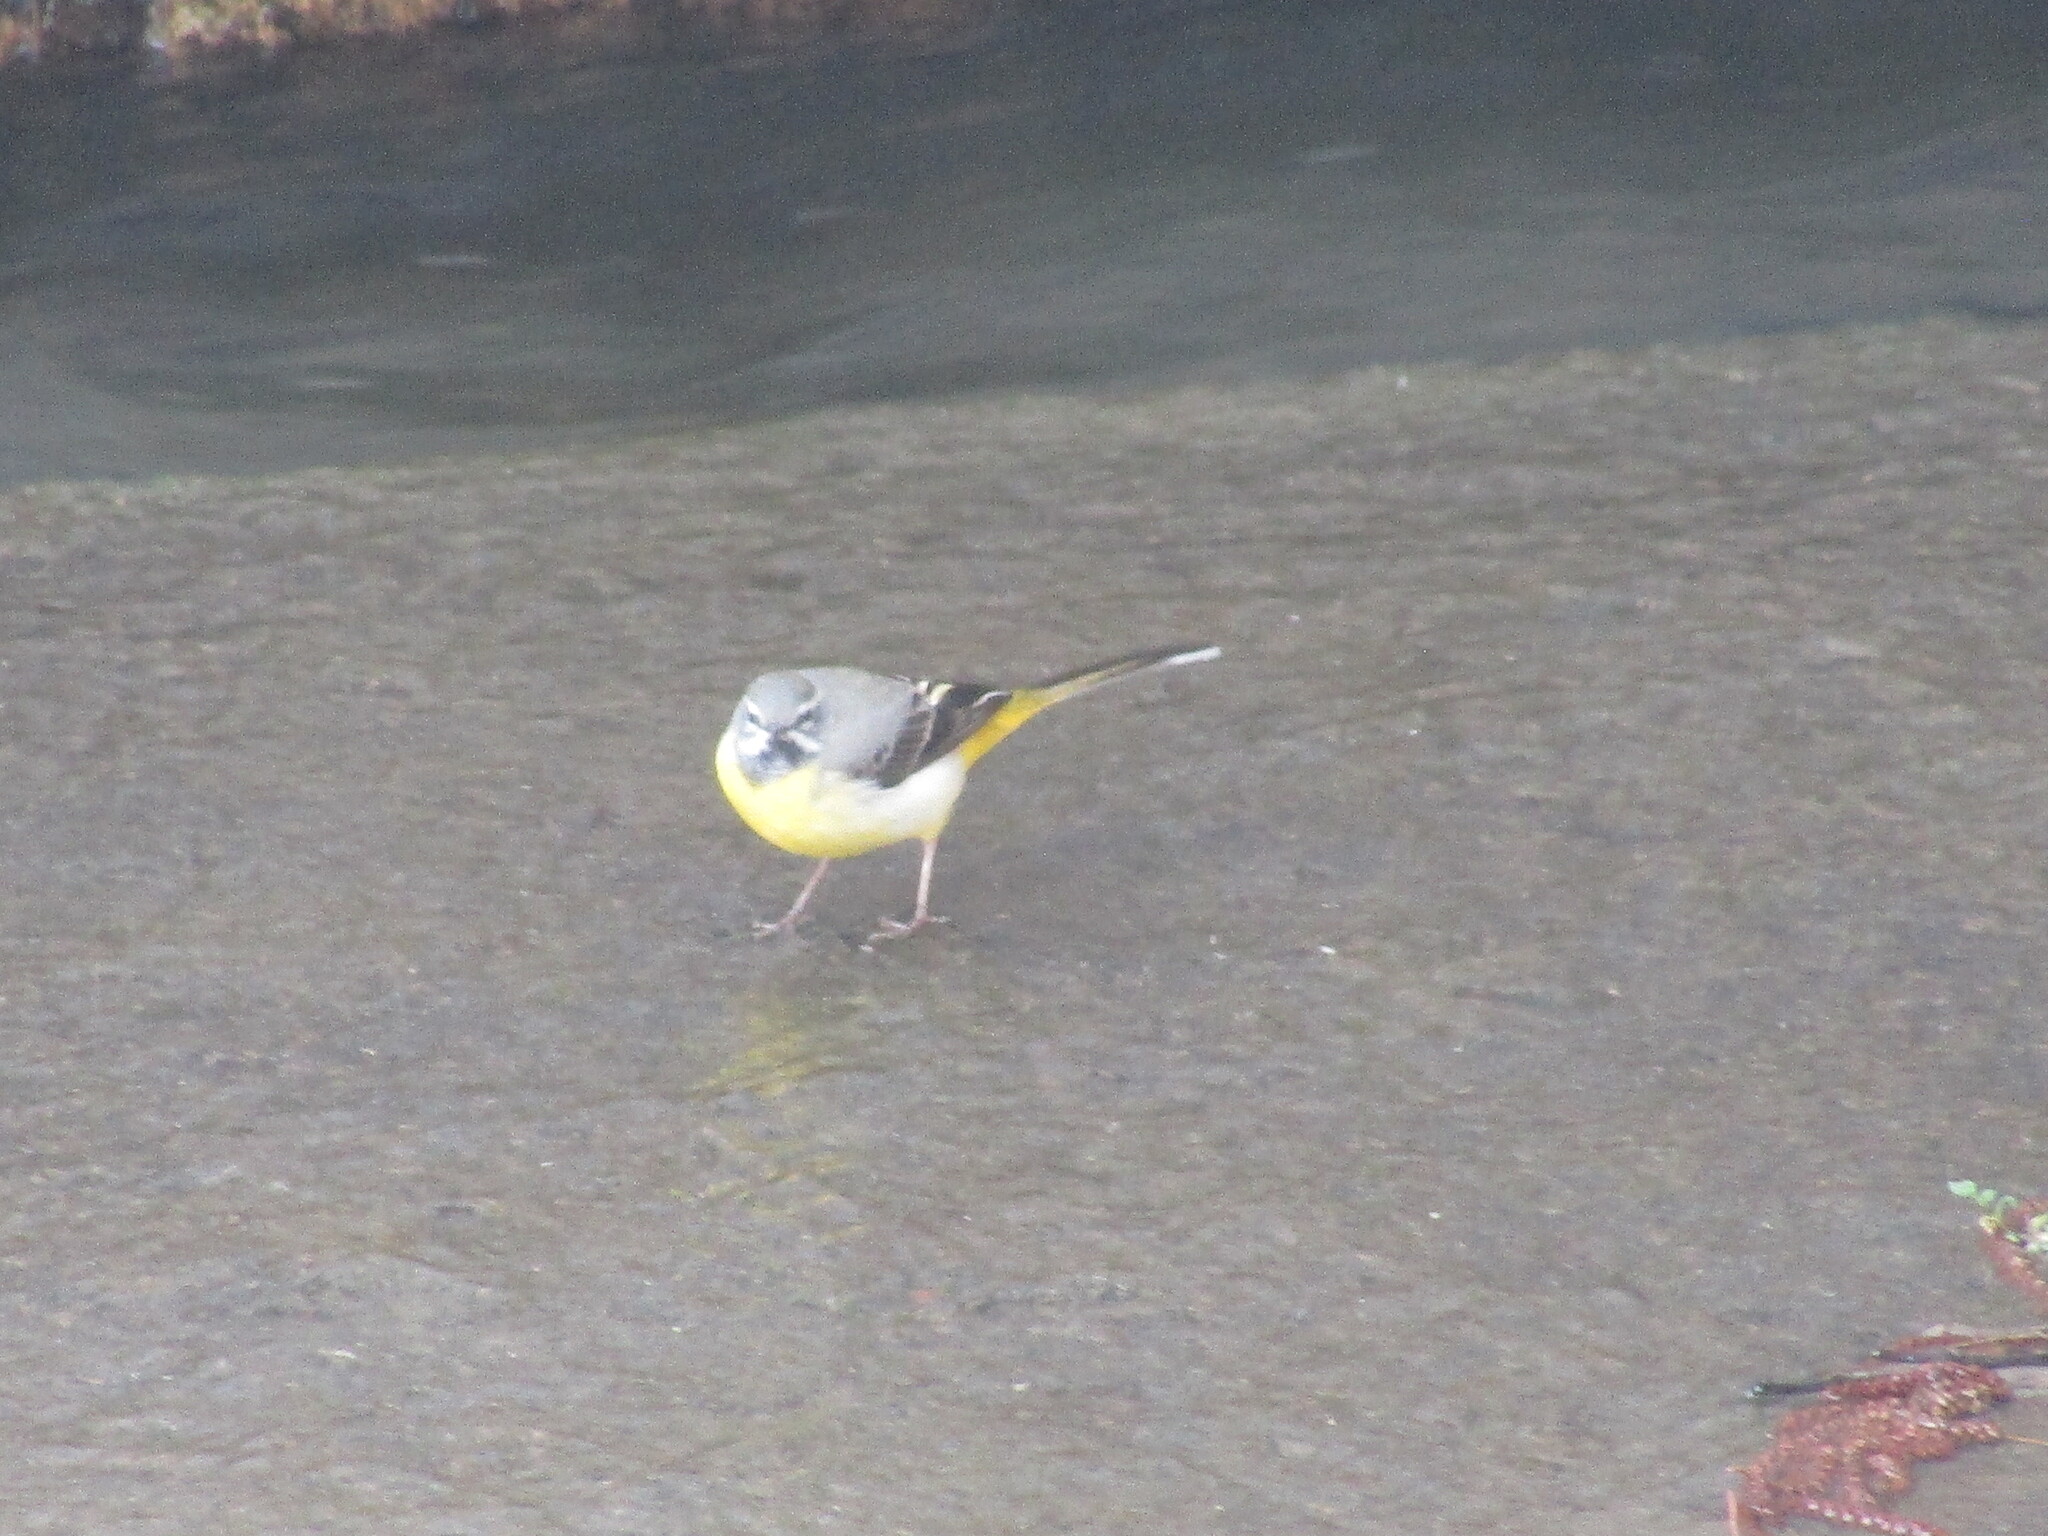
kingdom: Animalia
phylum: Chordata
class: Aves
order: Passeriformes
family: Motacillidae
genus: Motacilla
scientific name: Motacilla cinerea
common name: Grey wagtail
